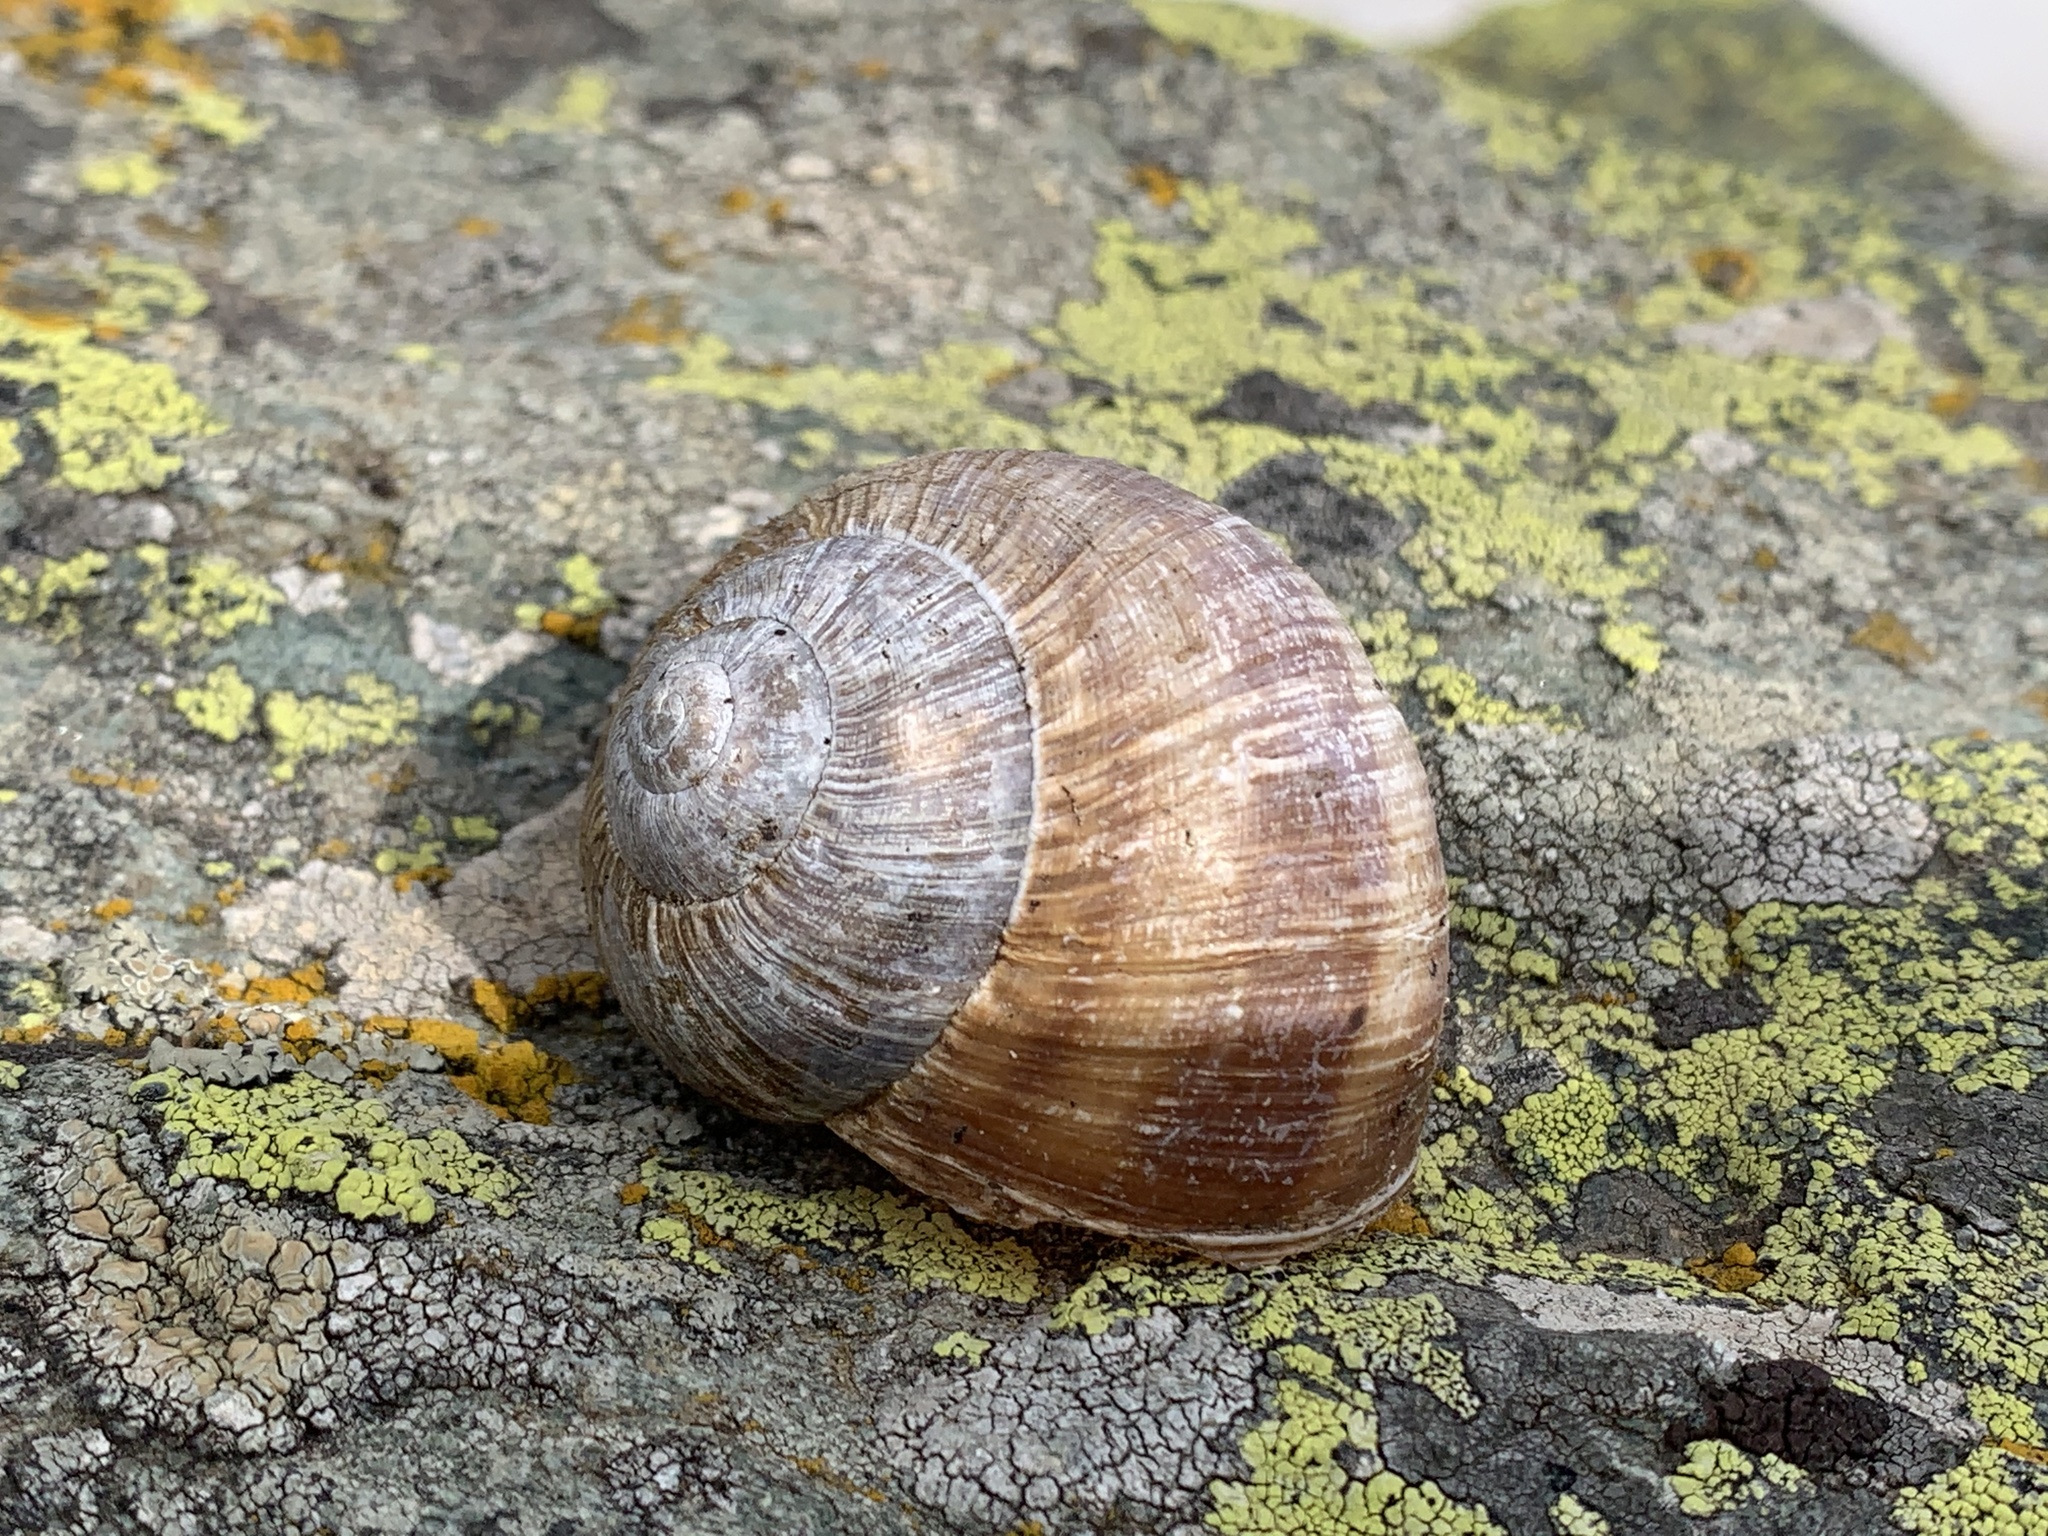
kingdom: Animalia
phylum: Mollusca
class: Gastropoda
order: Stylommatophora
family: Helicidae
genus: Helix
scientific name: Helix pomatia
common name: Roman snail
